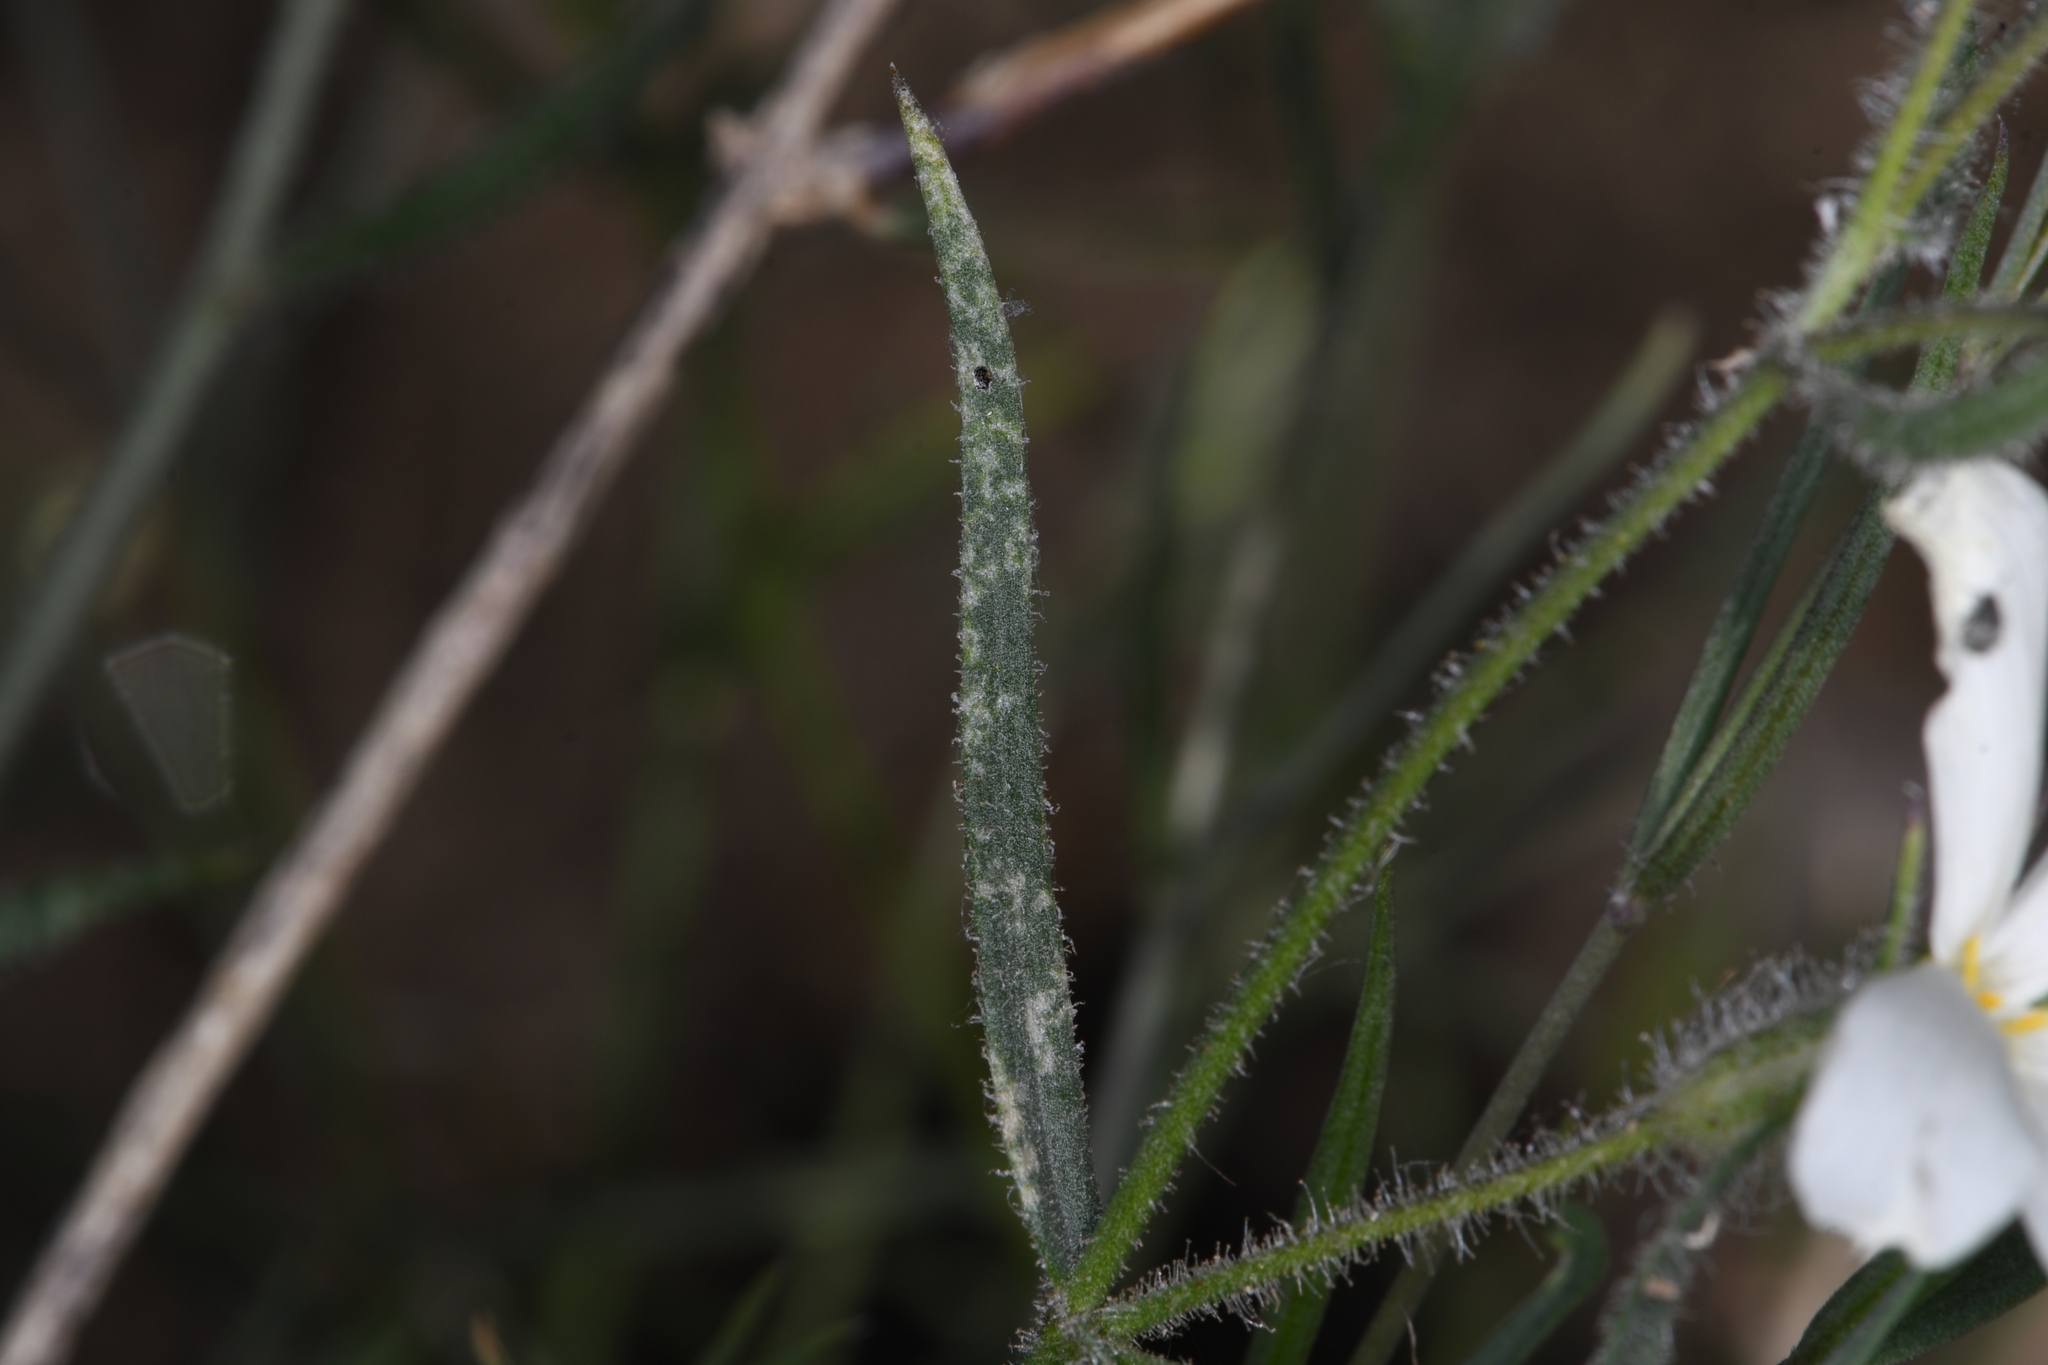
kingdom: Plantae
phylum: Tracheophyta
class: Magnoliopsida
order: Ericales
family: Polemoniaceae
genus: Phlox
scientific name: Phlox tenuifolia
